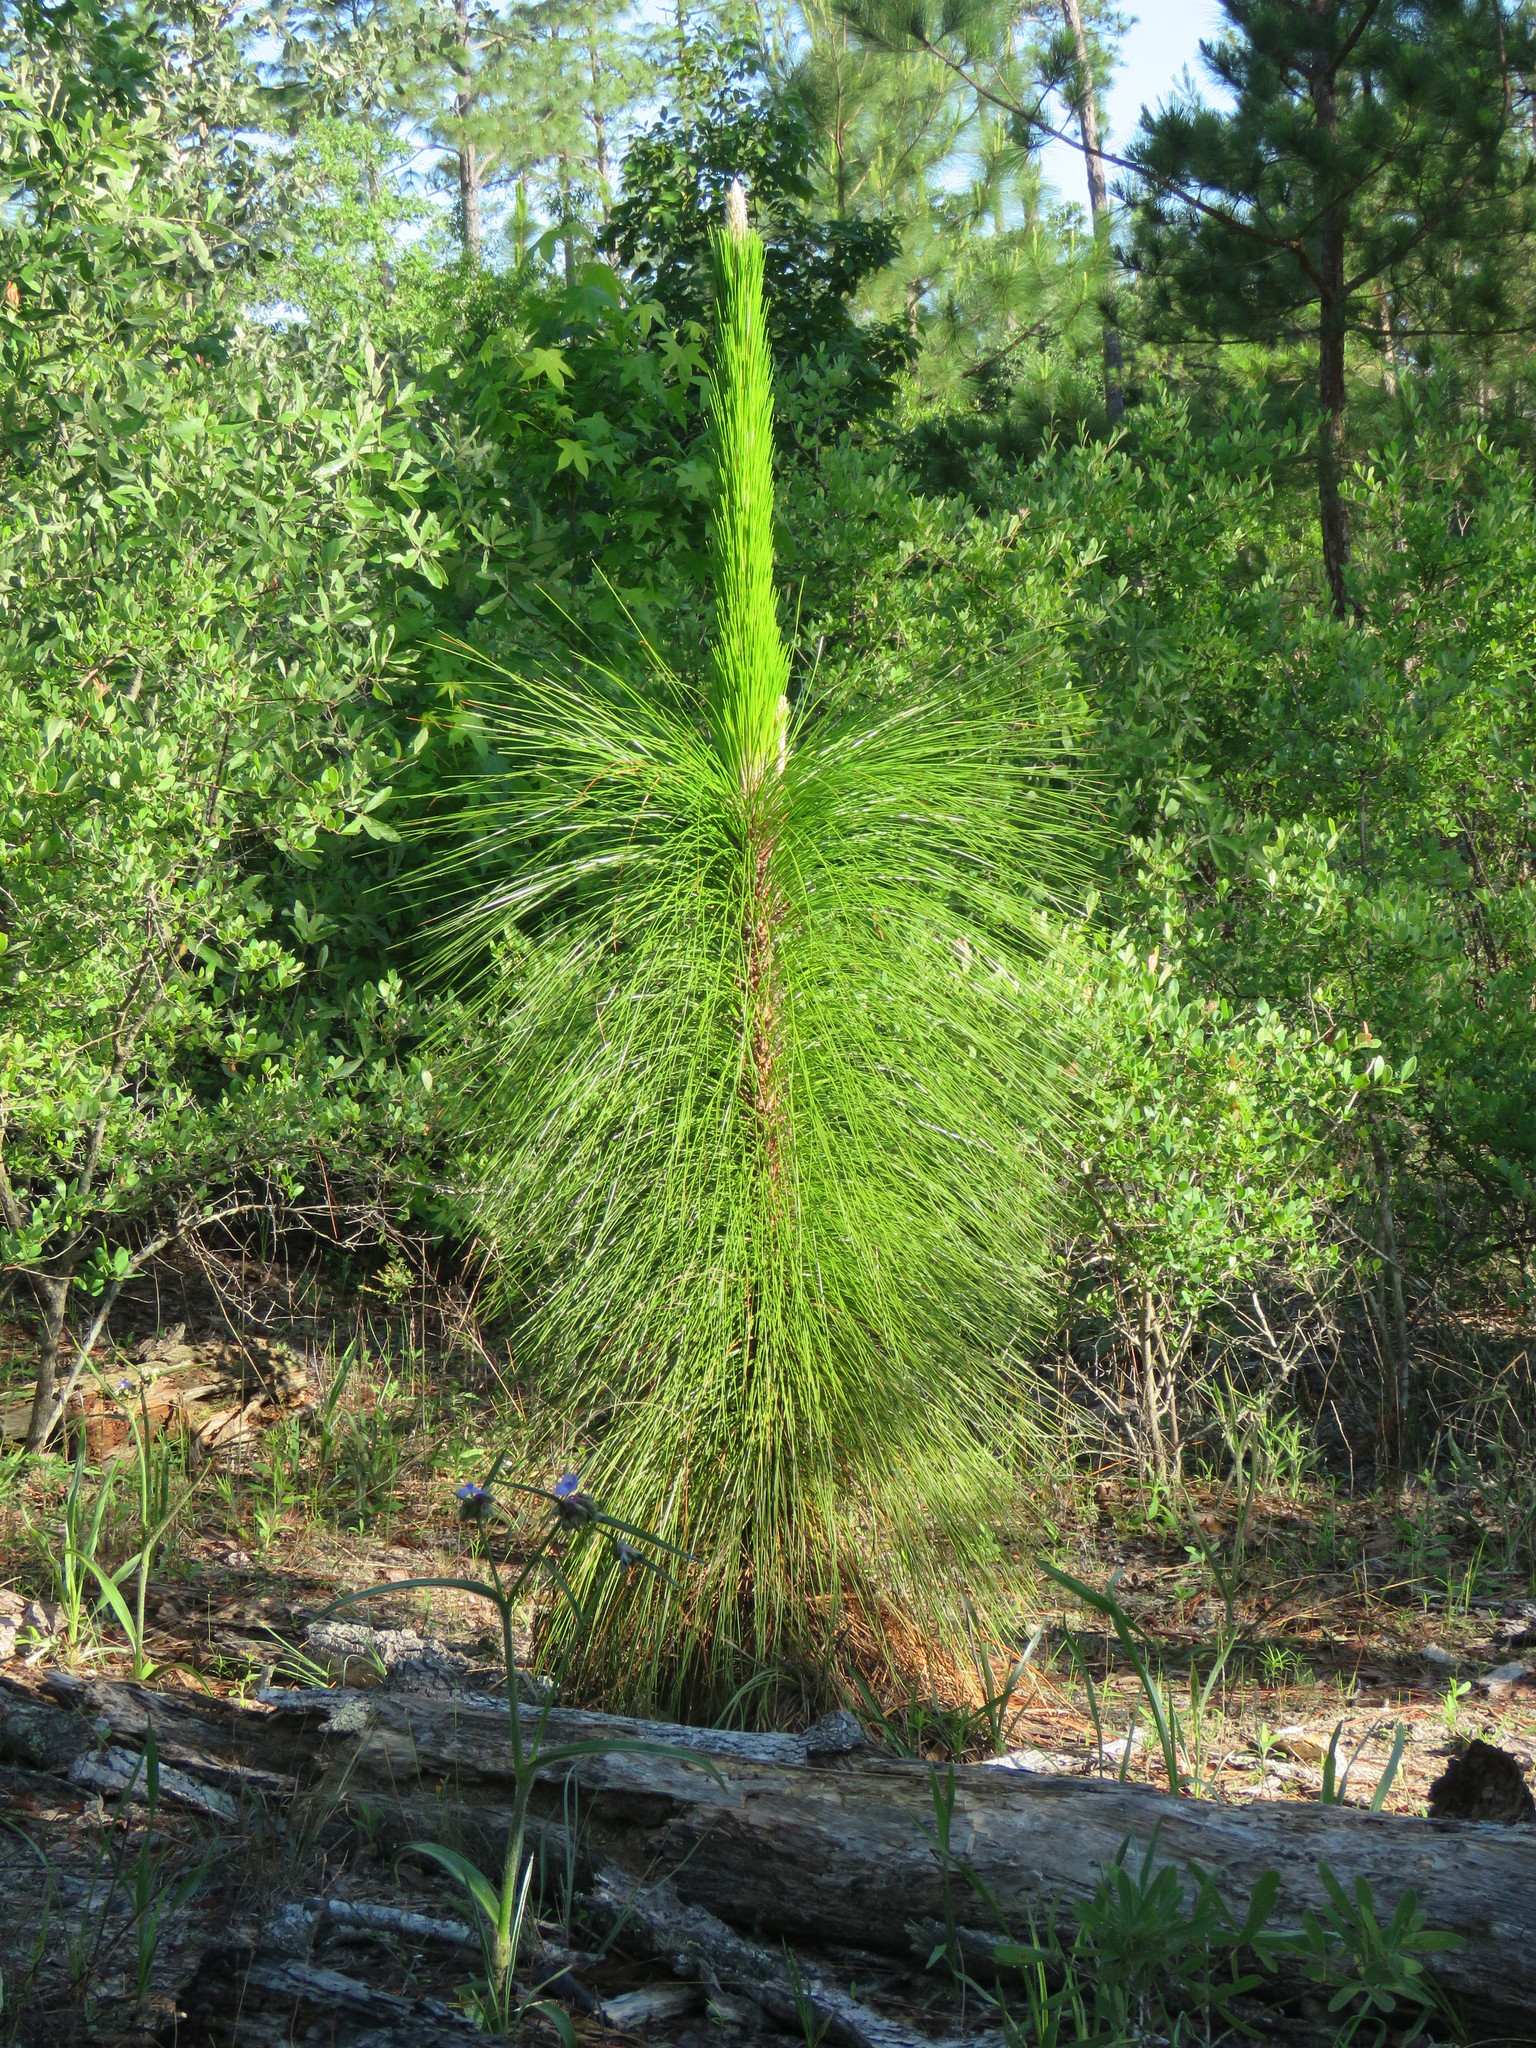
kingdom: Plantae
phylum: Tracheophyta
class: Pinopsida
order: Pinales
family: Pinaceae
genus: Pinus
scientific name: Pinus palustris
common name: Longleaf pine
